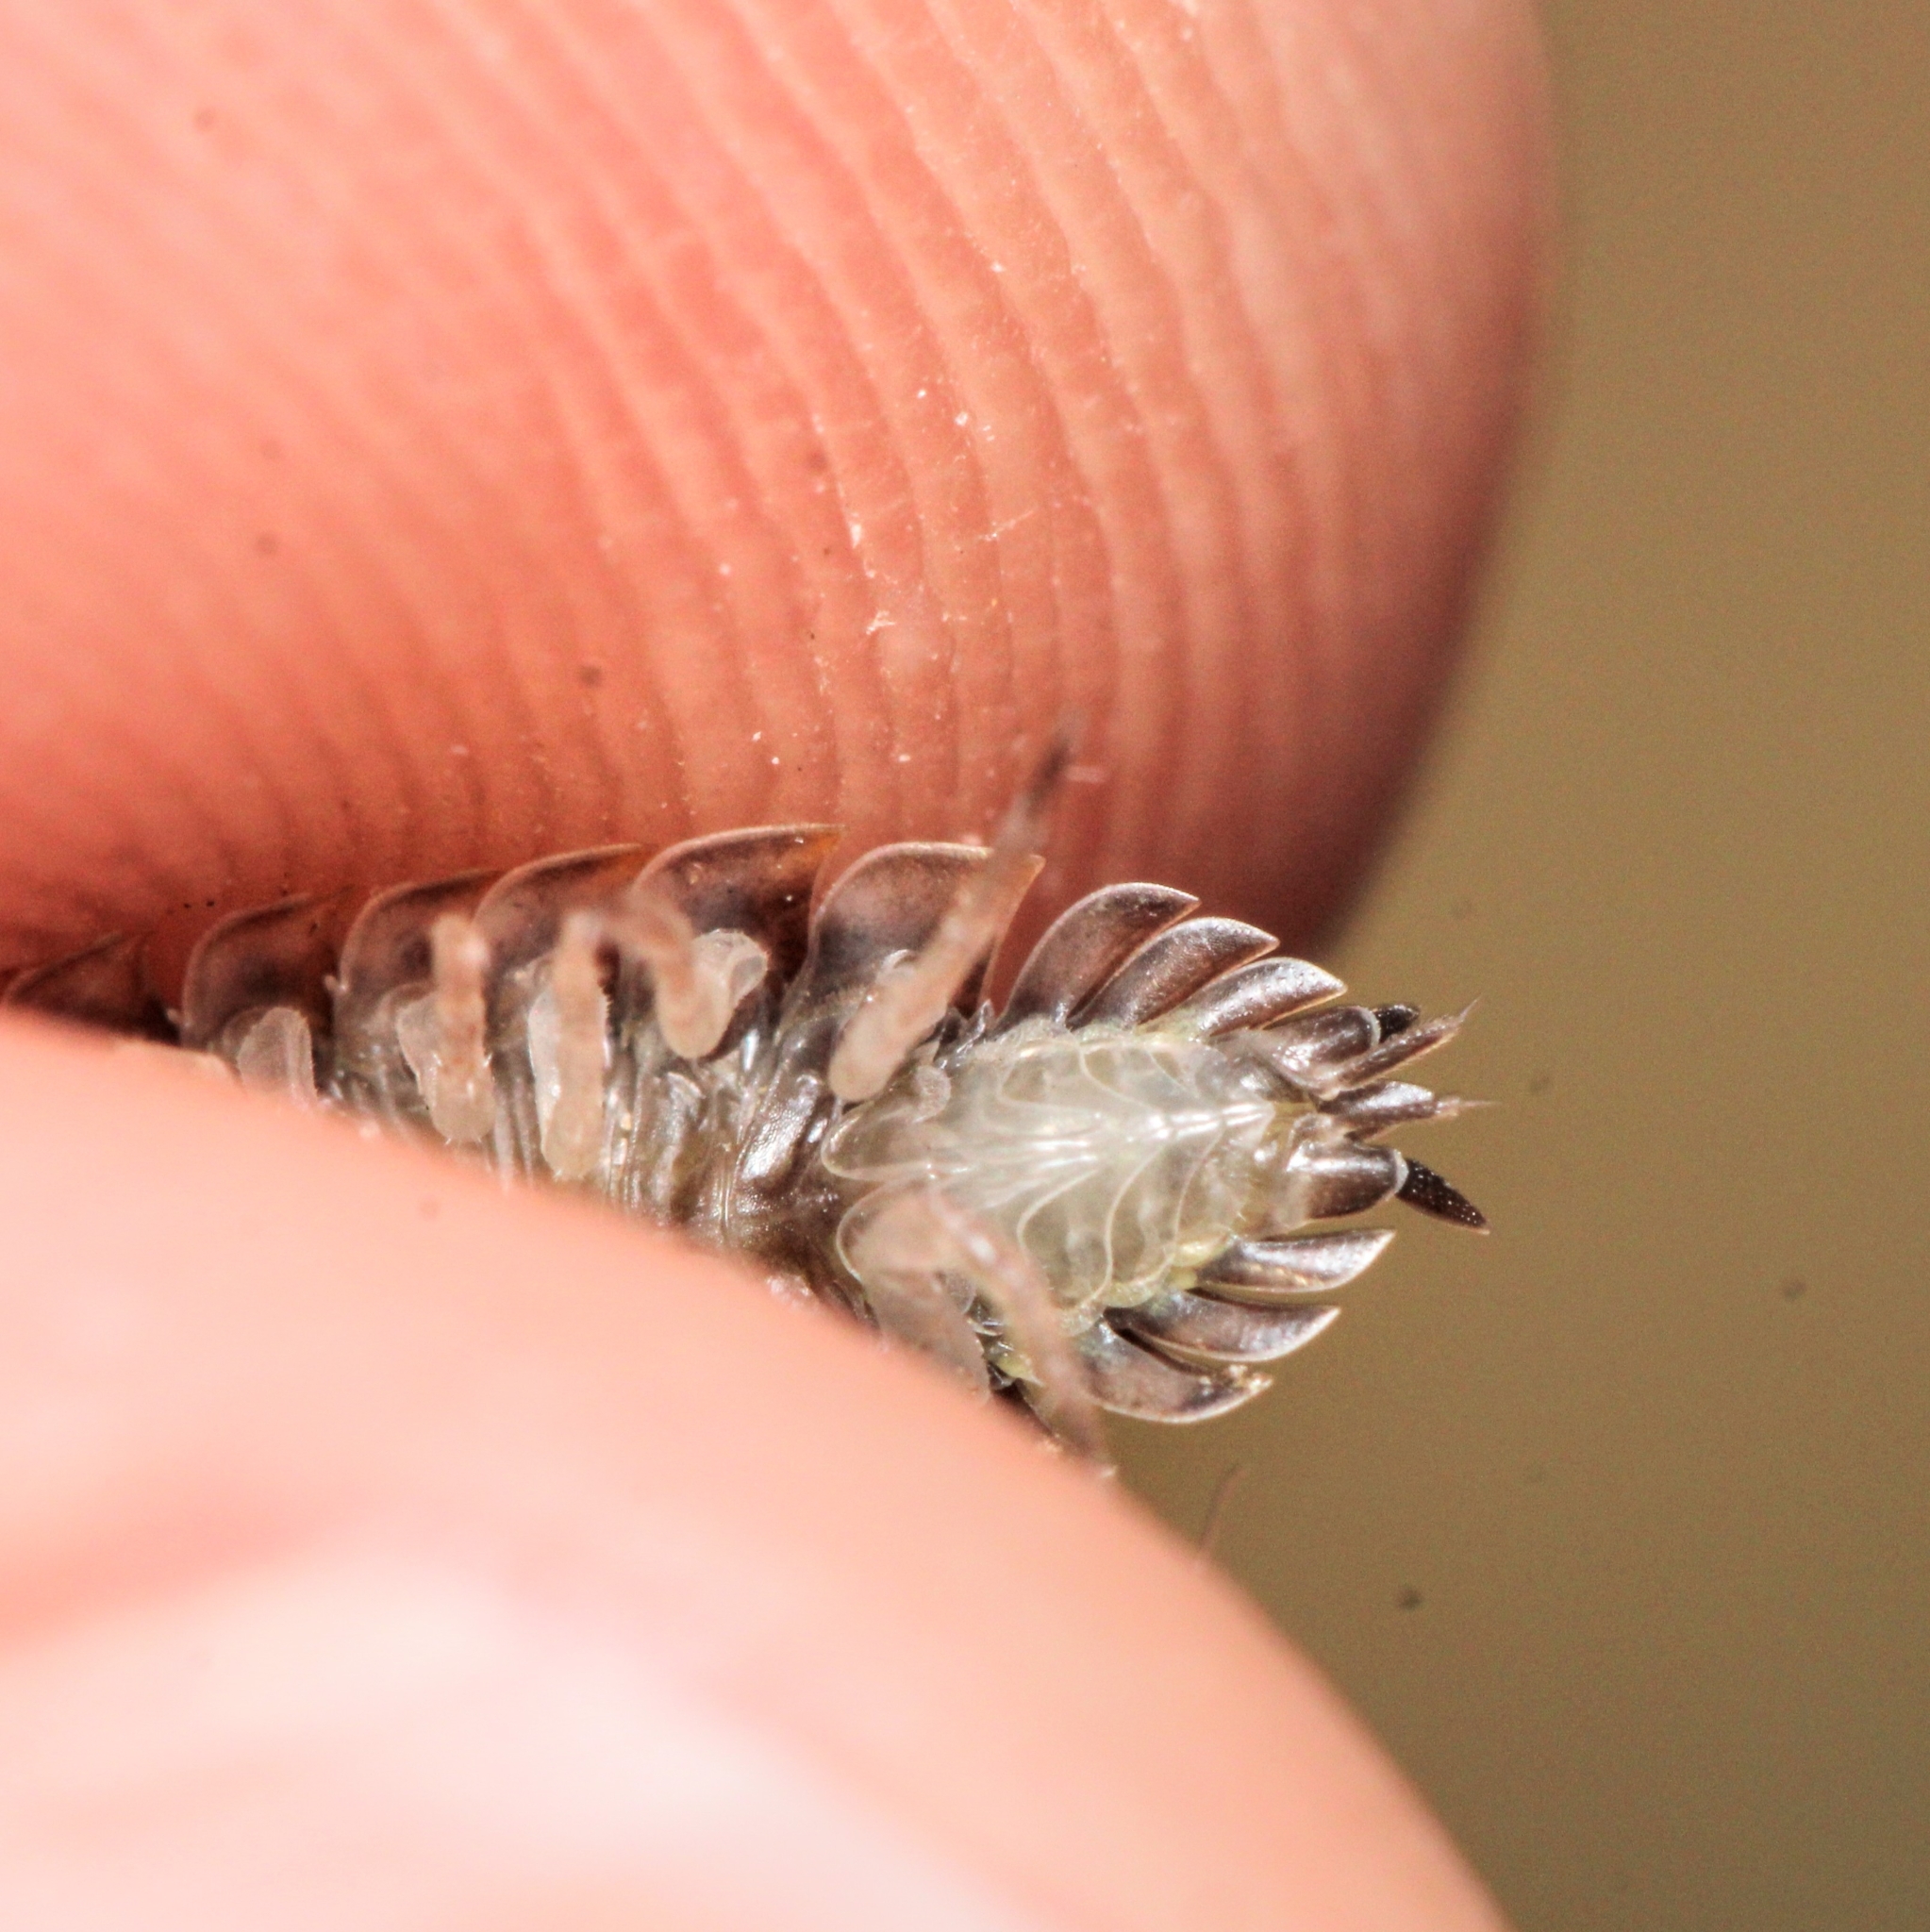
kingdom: Animalia
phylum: Arthropoda
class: Malacostraca
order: Isopoda
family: Oniscidae
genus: Oniscus
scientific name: Oniscus asellus
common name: Common shiny woodlouse
